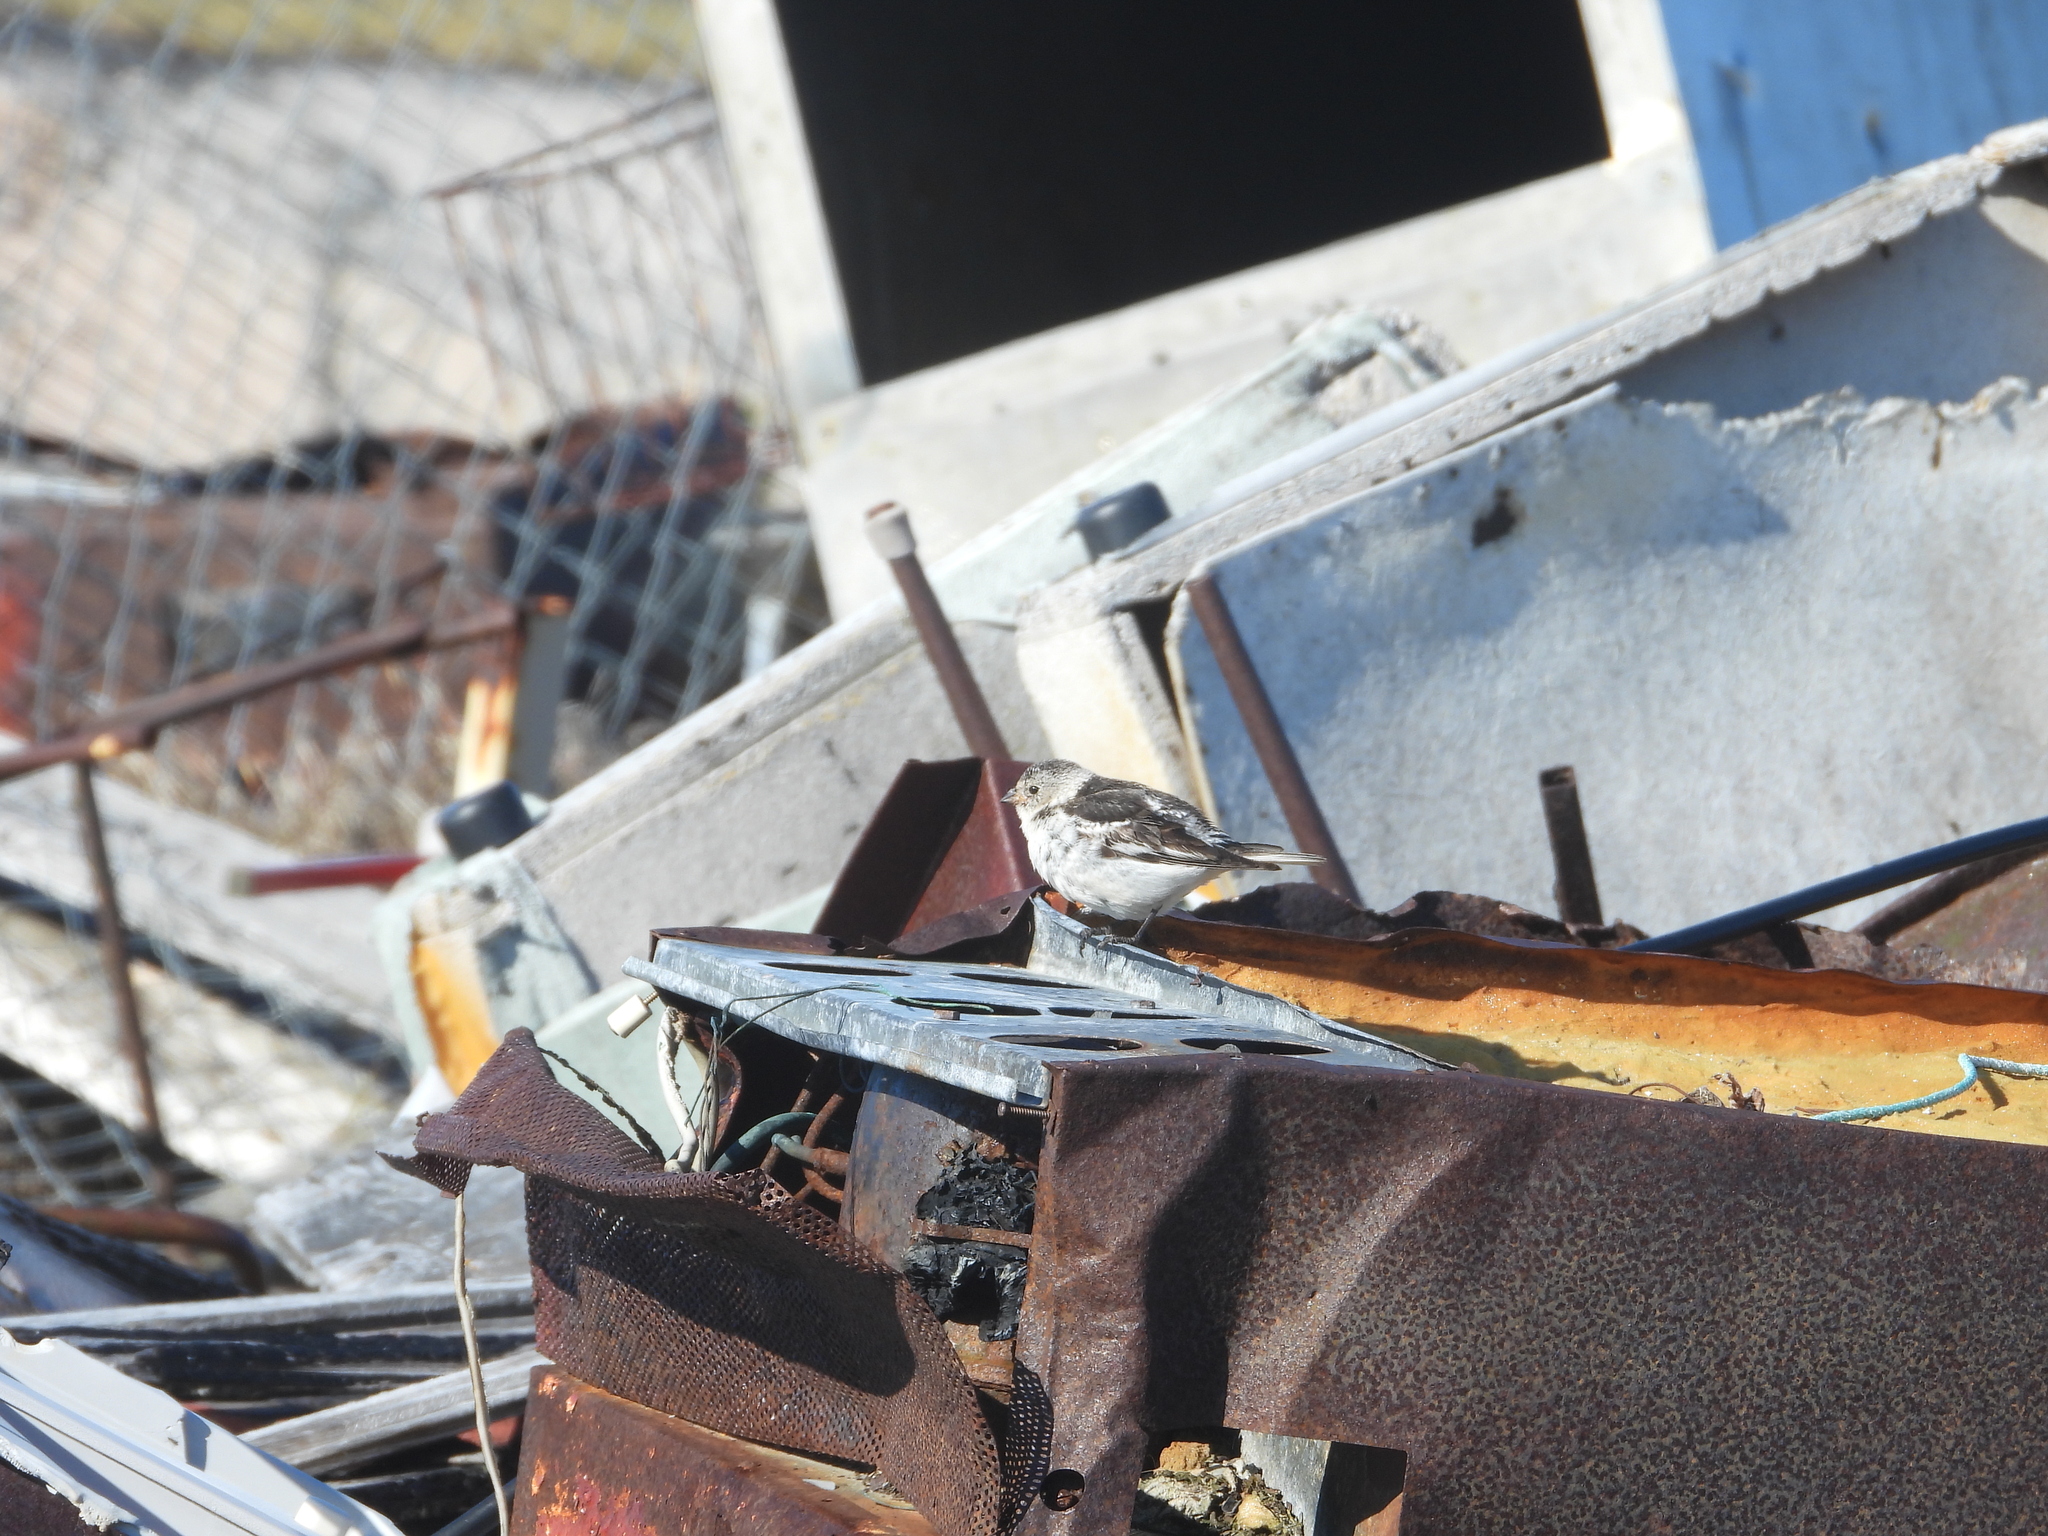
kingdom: Animalia
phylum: Chordata
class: Aves
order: Passeriformes
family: Calcariidae
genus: Plectrophenax
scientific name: Plectrophenax nivalis
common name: Snow bunting
